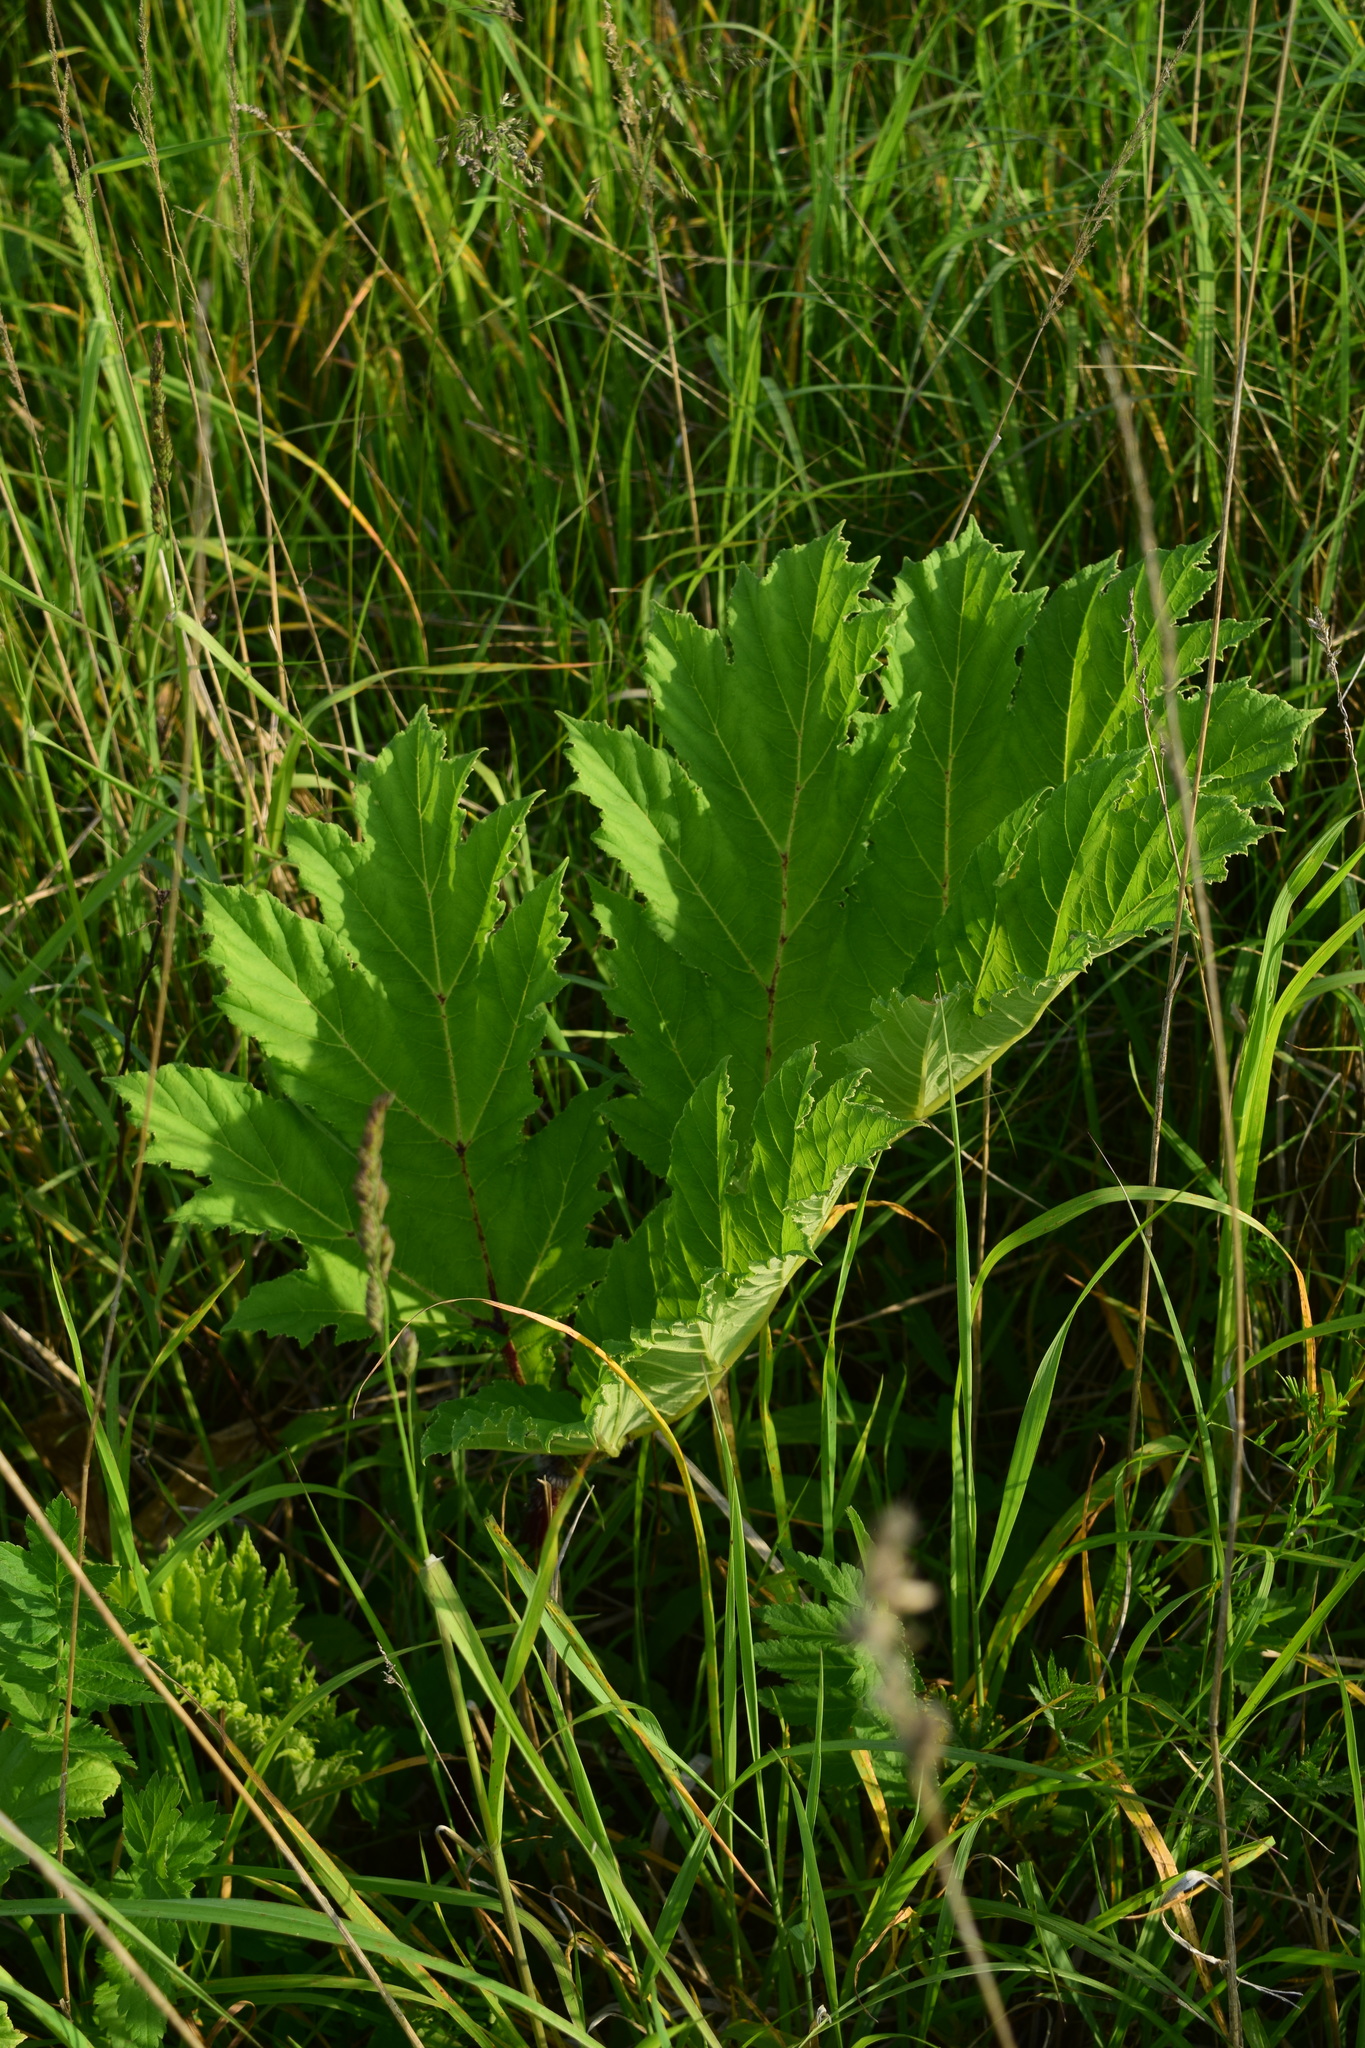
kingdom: Plantae
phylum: Tracheophyta
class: Magnoliopsida
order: Apiales
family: Apiaceae
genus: Heracleum
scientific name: Heracleum sosnowskyi
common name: Sosnowsky's hogweed
